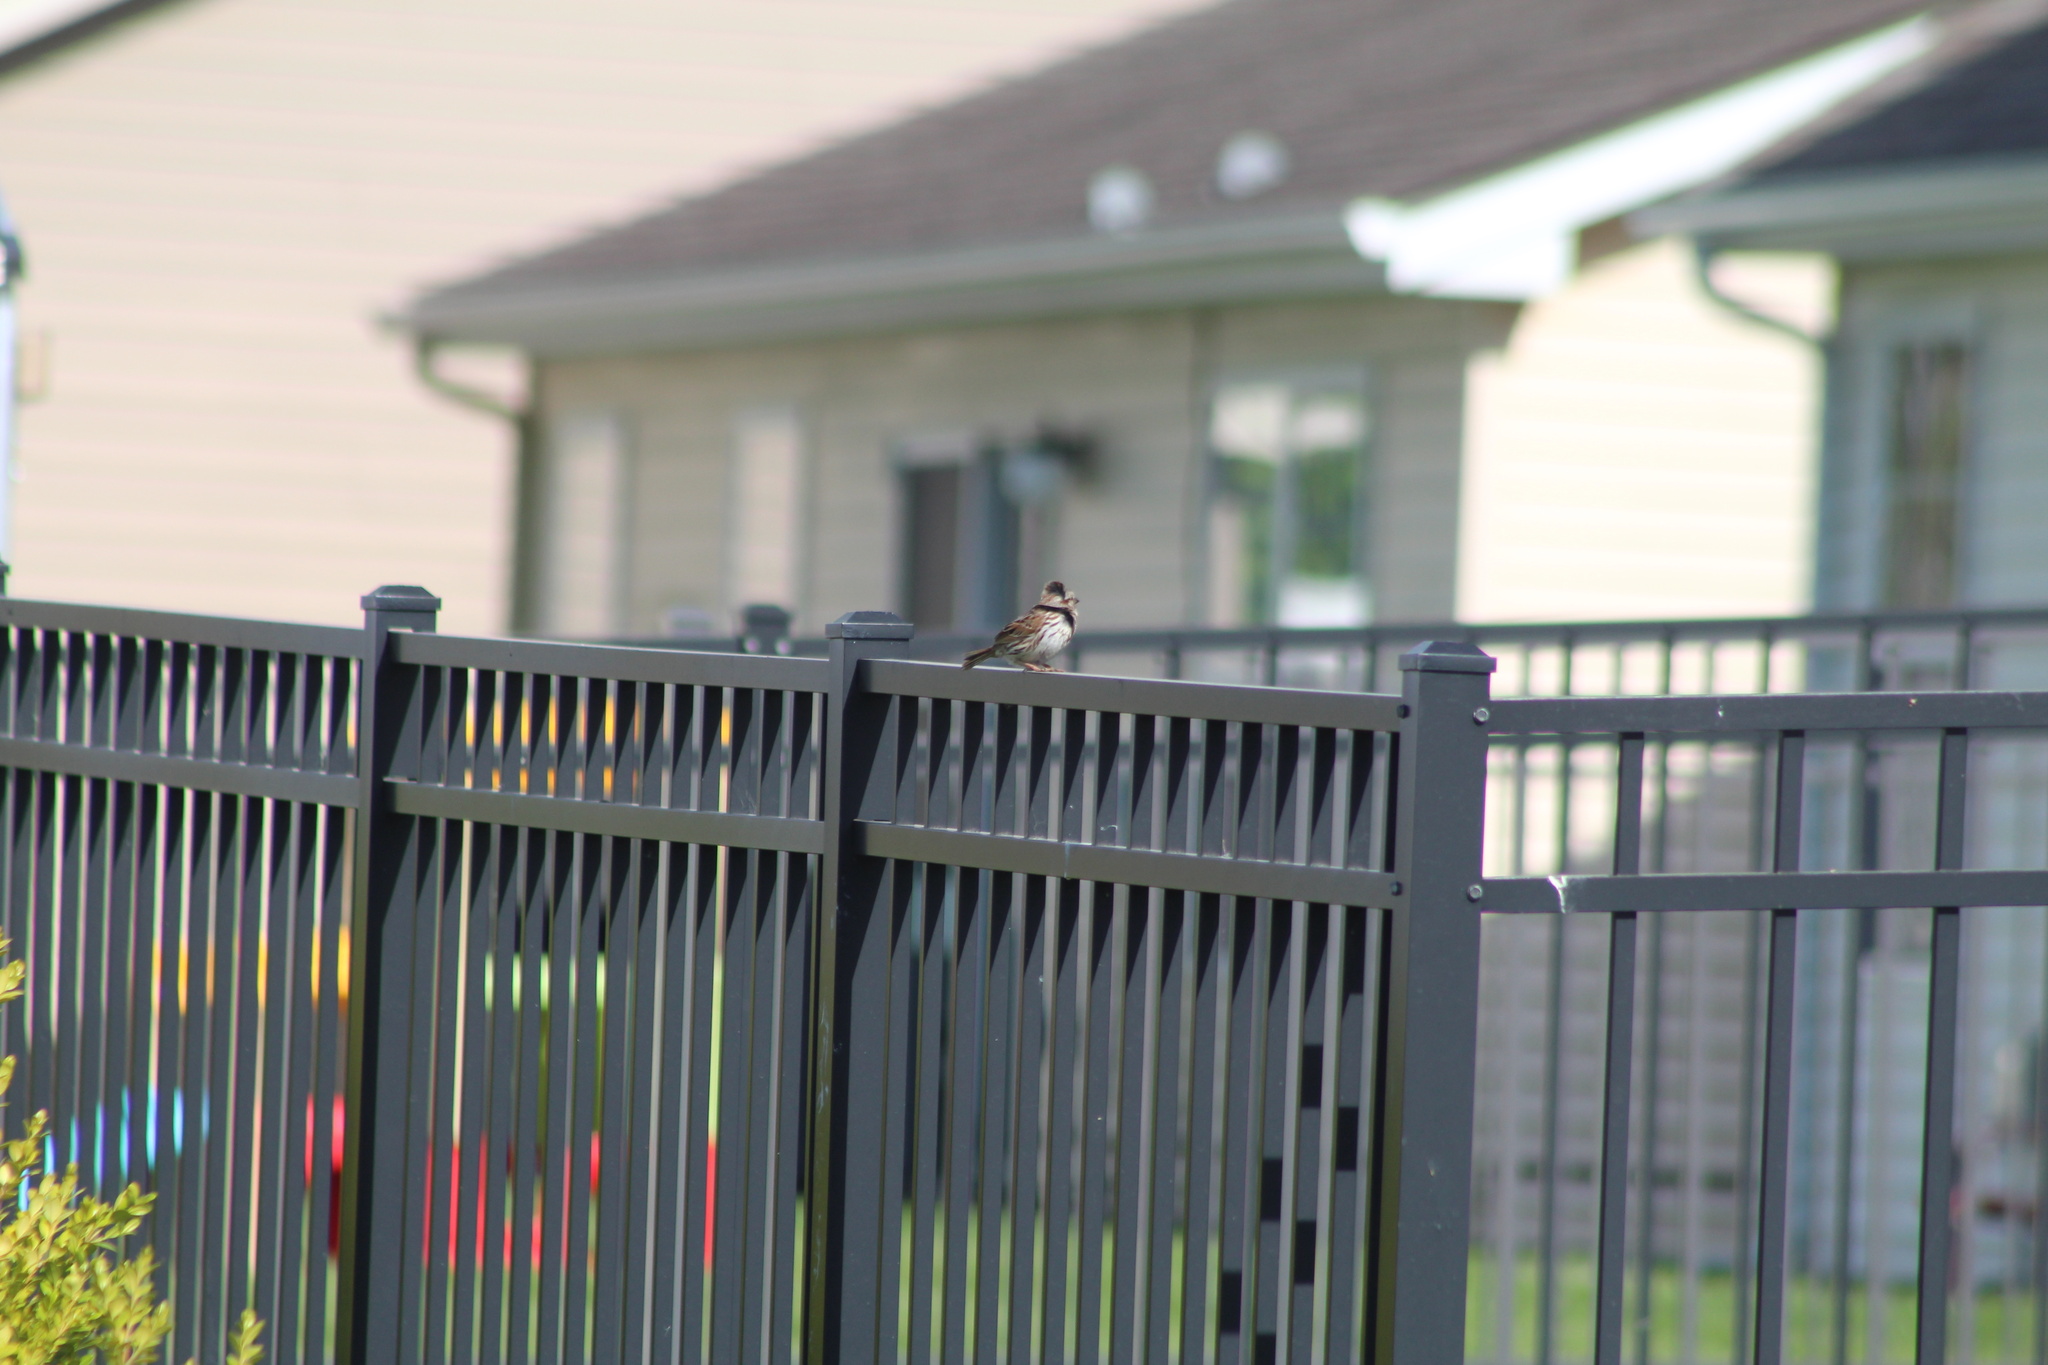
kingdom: Animalia
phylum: Chordata
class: Aves
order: Passeriformes
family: Passerellidae
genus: Melospiza
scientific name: Melospiza melodia
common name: Song sparrow
